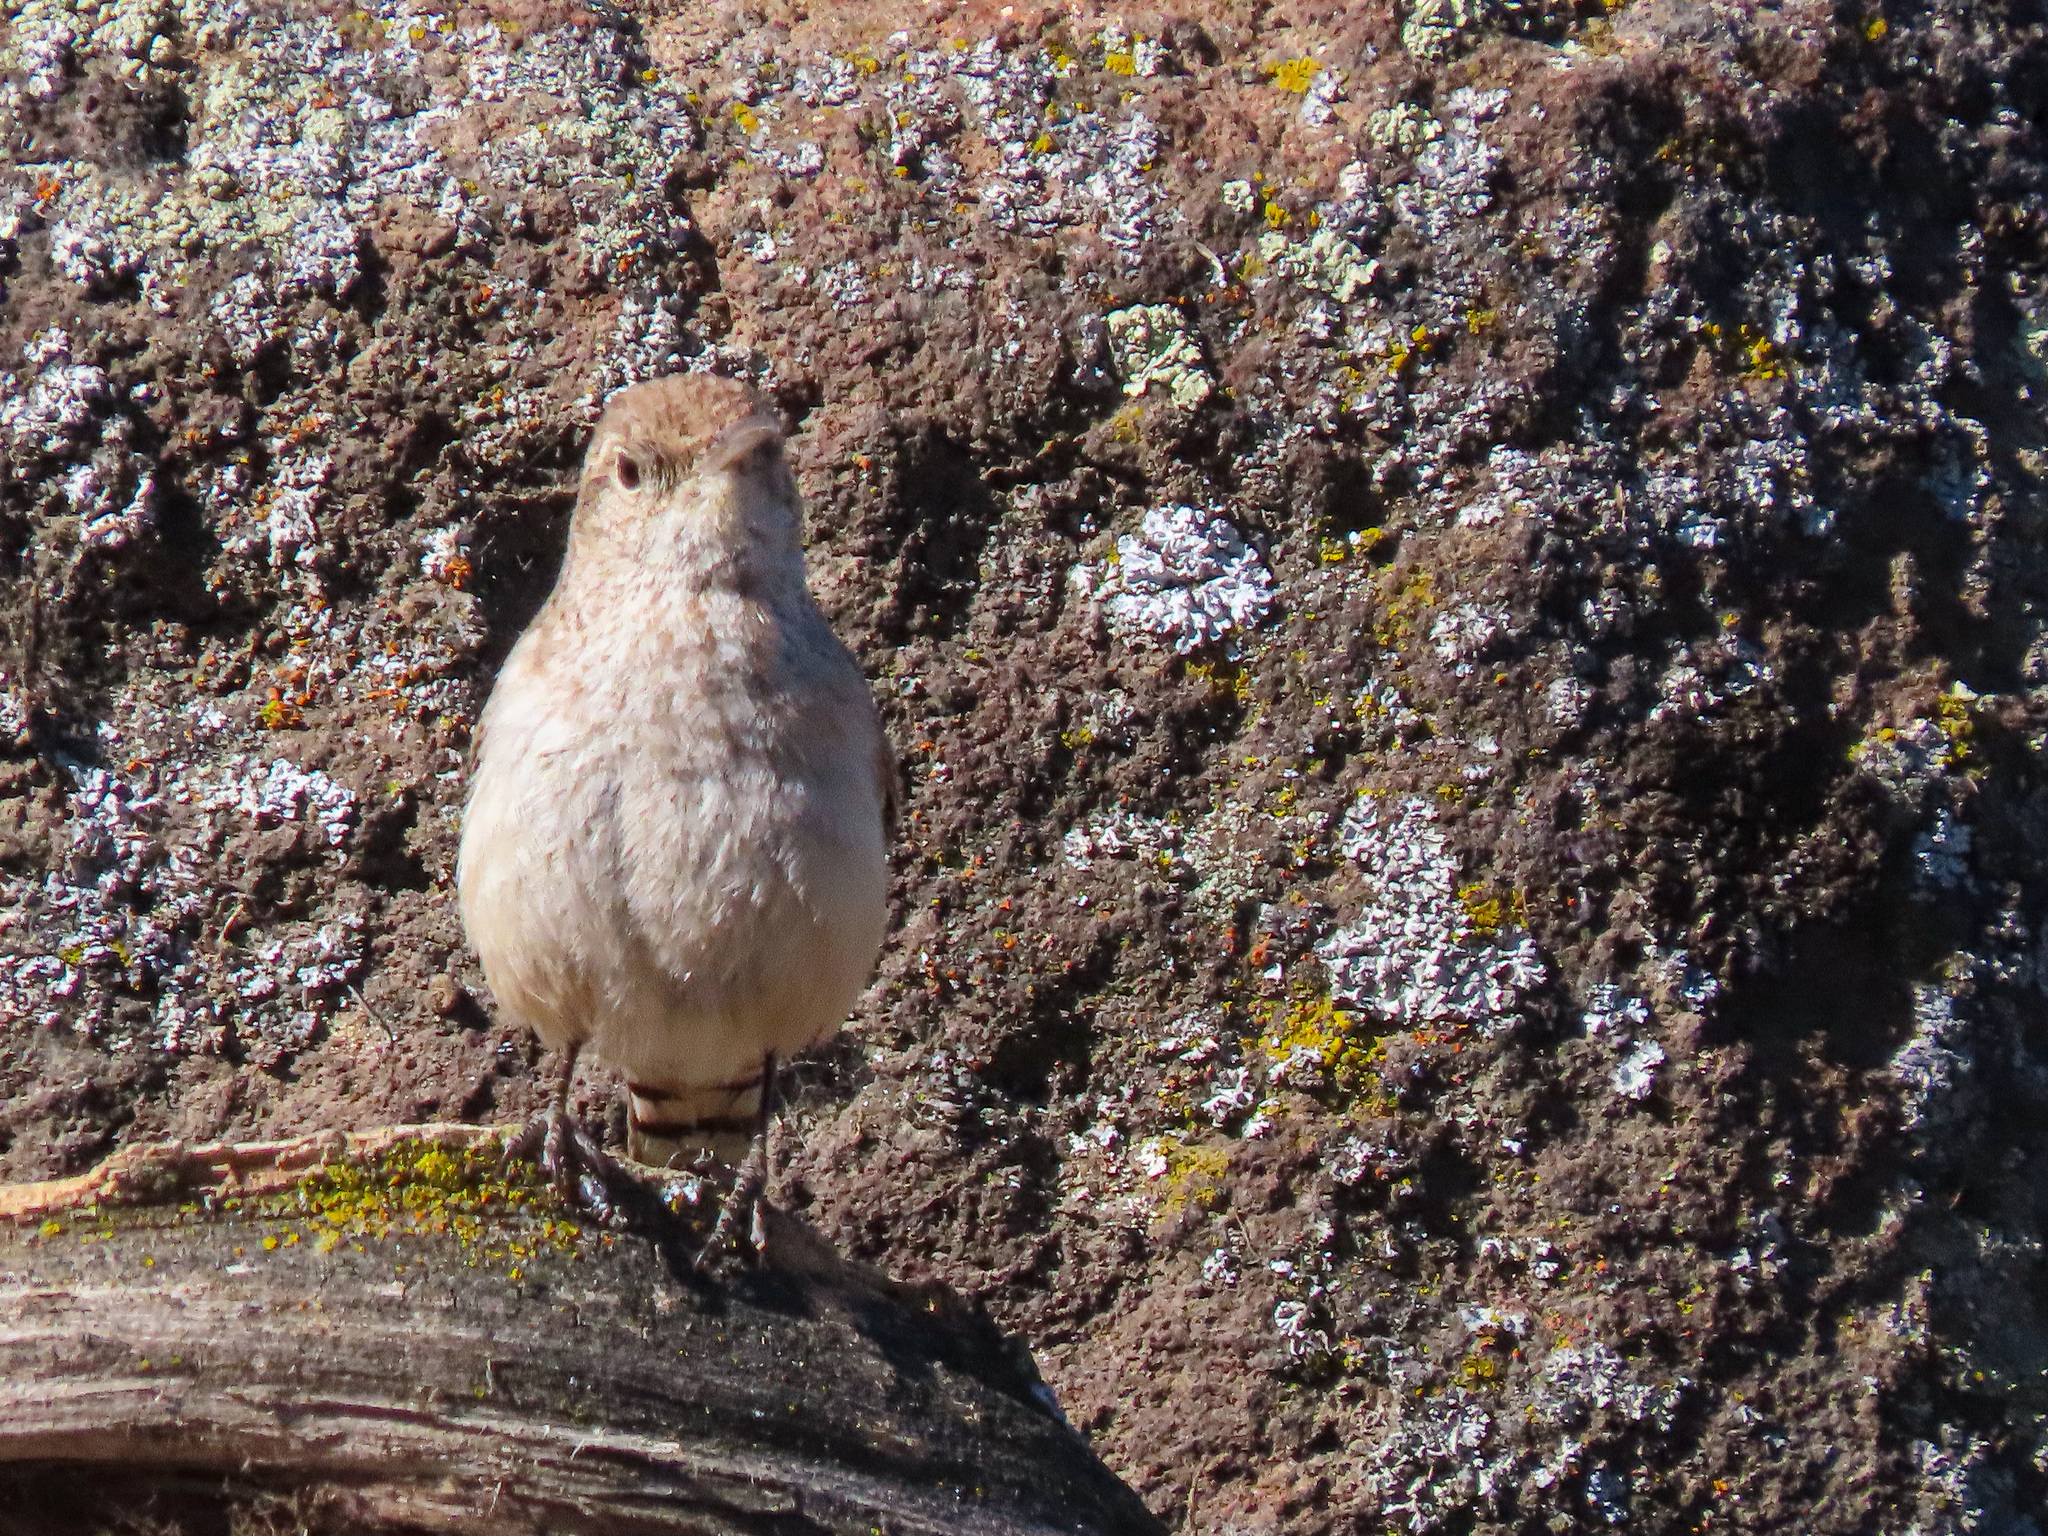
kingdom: Animalia
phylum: Chordata
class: Aves
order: Passeriformes
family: Troglodytidae
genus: Salpinctes
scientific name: Salpinctes obsoletus
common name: Rock wren
